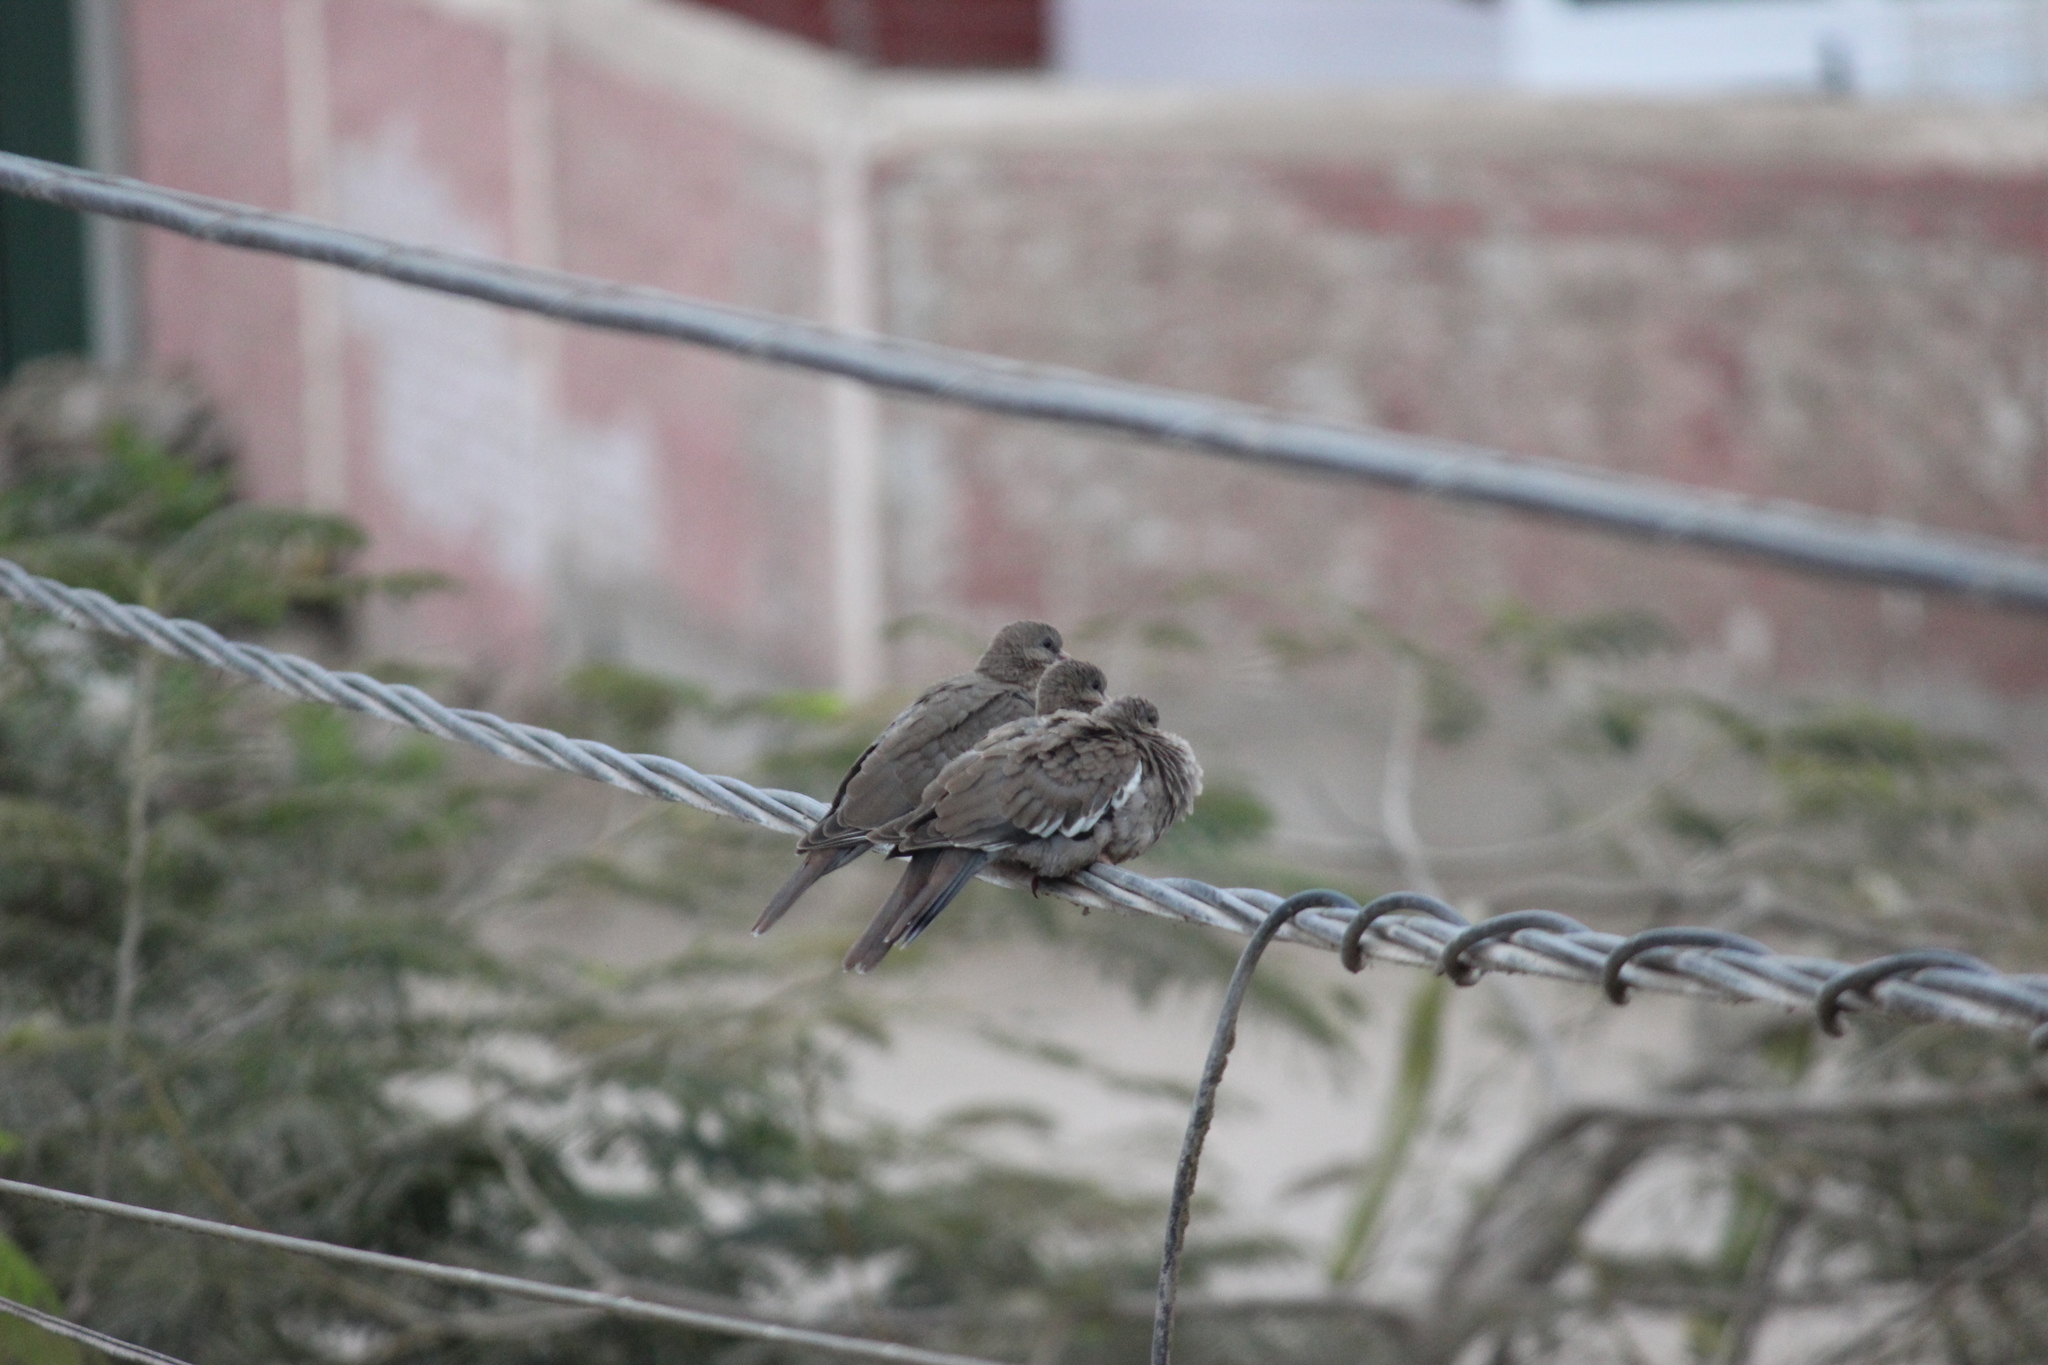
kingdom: Animalia
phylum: Chordata
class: Aves
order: Columbiformes
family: Columbidae
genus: Zenaida
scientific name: Zenaida meloda
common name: West peruvian dove
